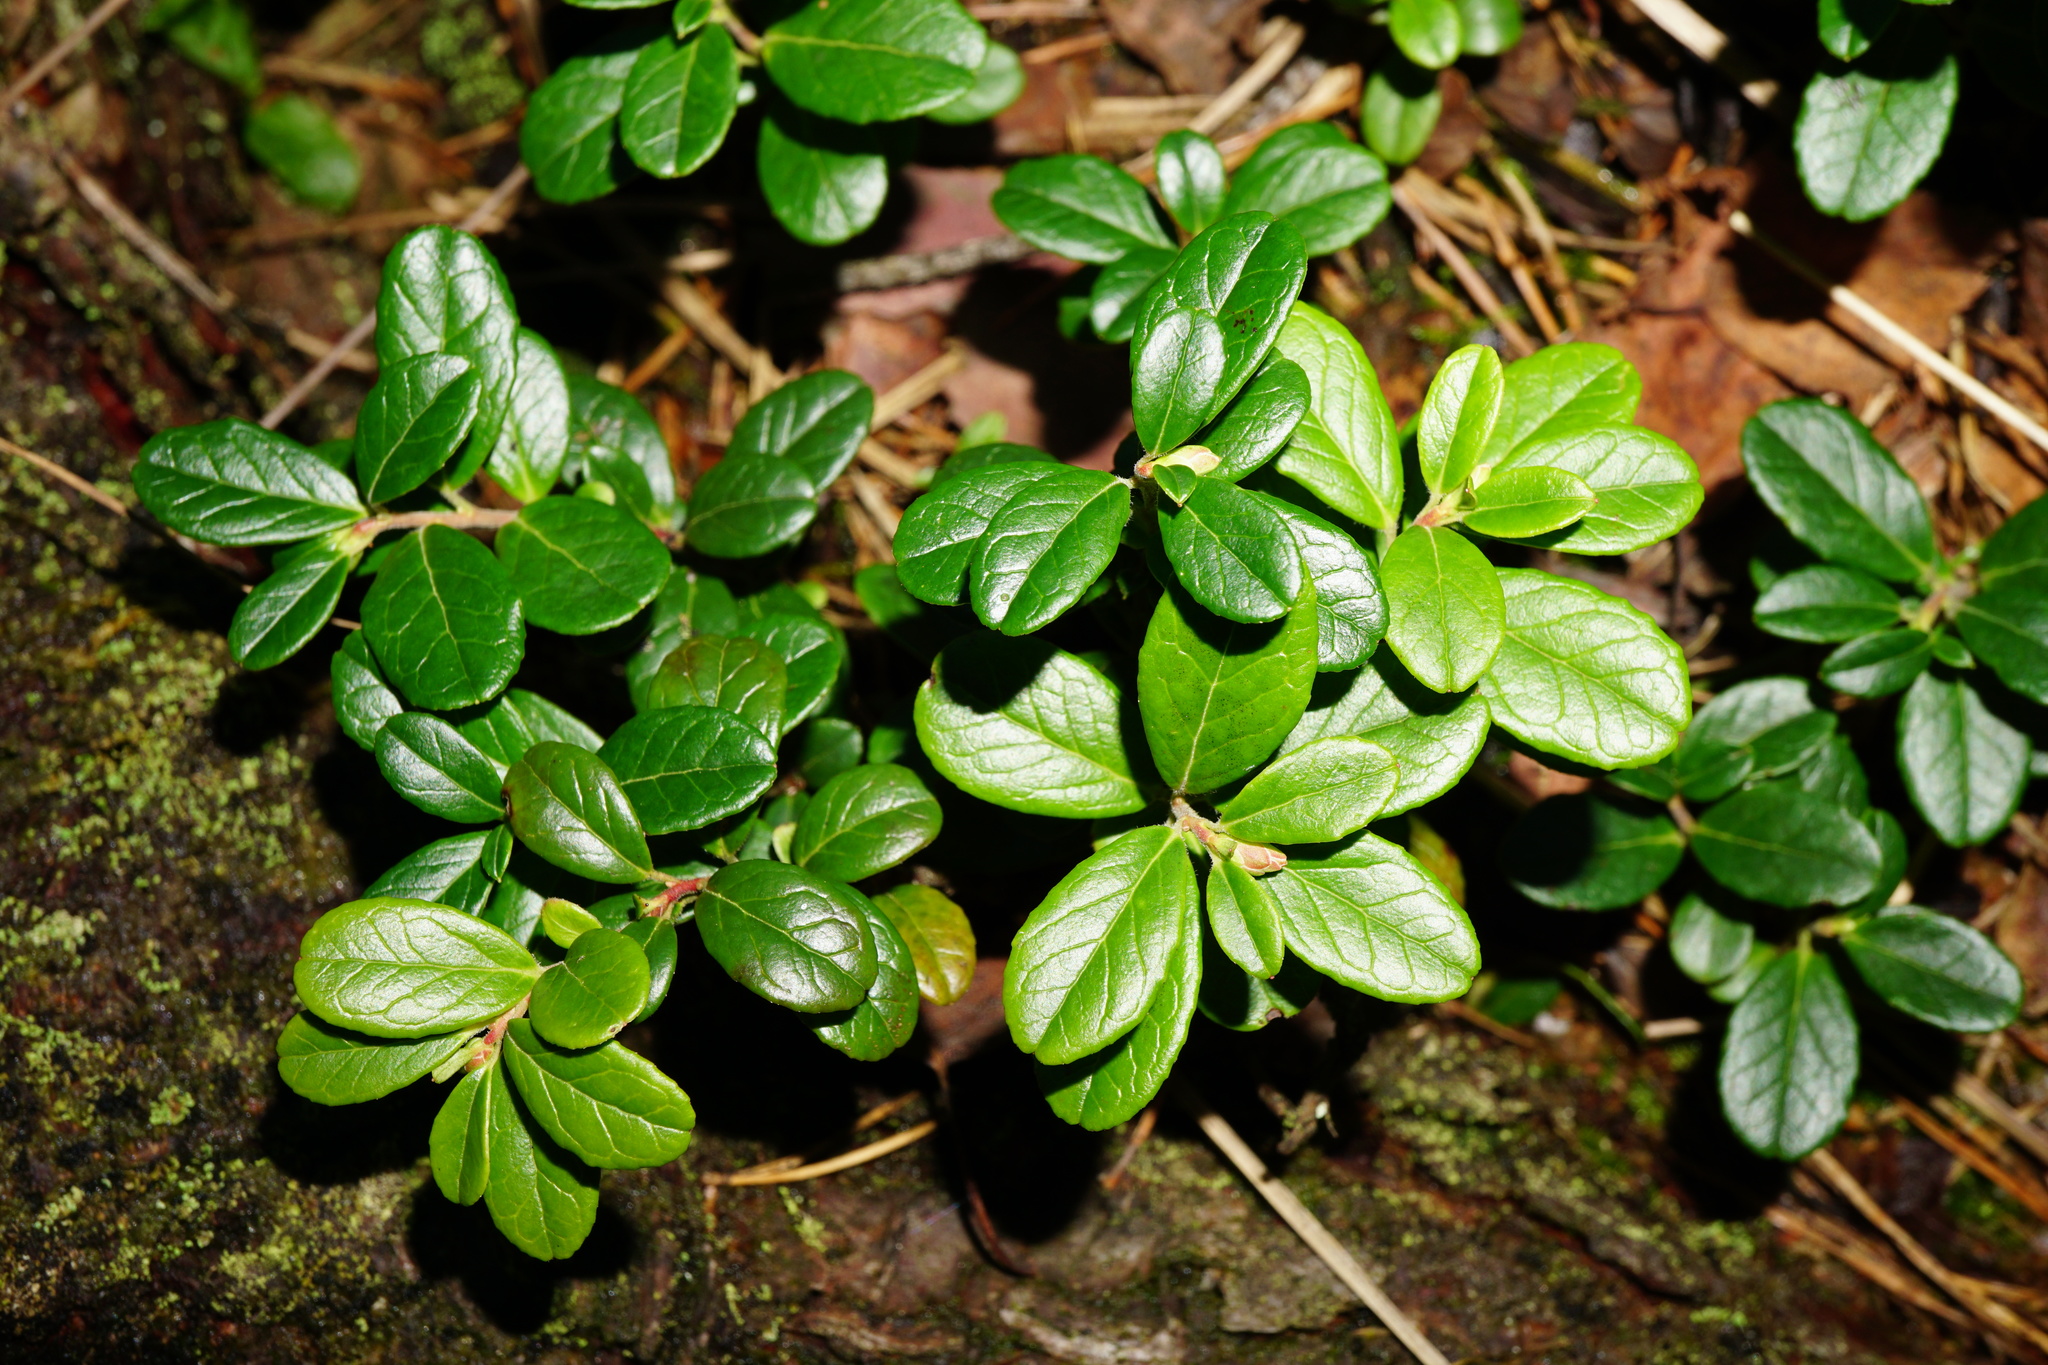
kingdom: Plantae
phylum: Tracheophyta
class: Magnoliopsida
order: Ericales
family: Ericaceae
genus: Vaccinium
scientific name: Vaccinium vitis-idaea
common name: Cowberry
